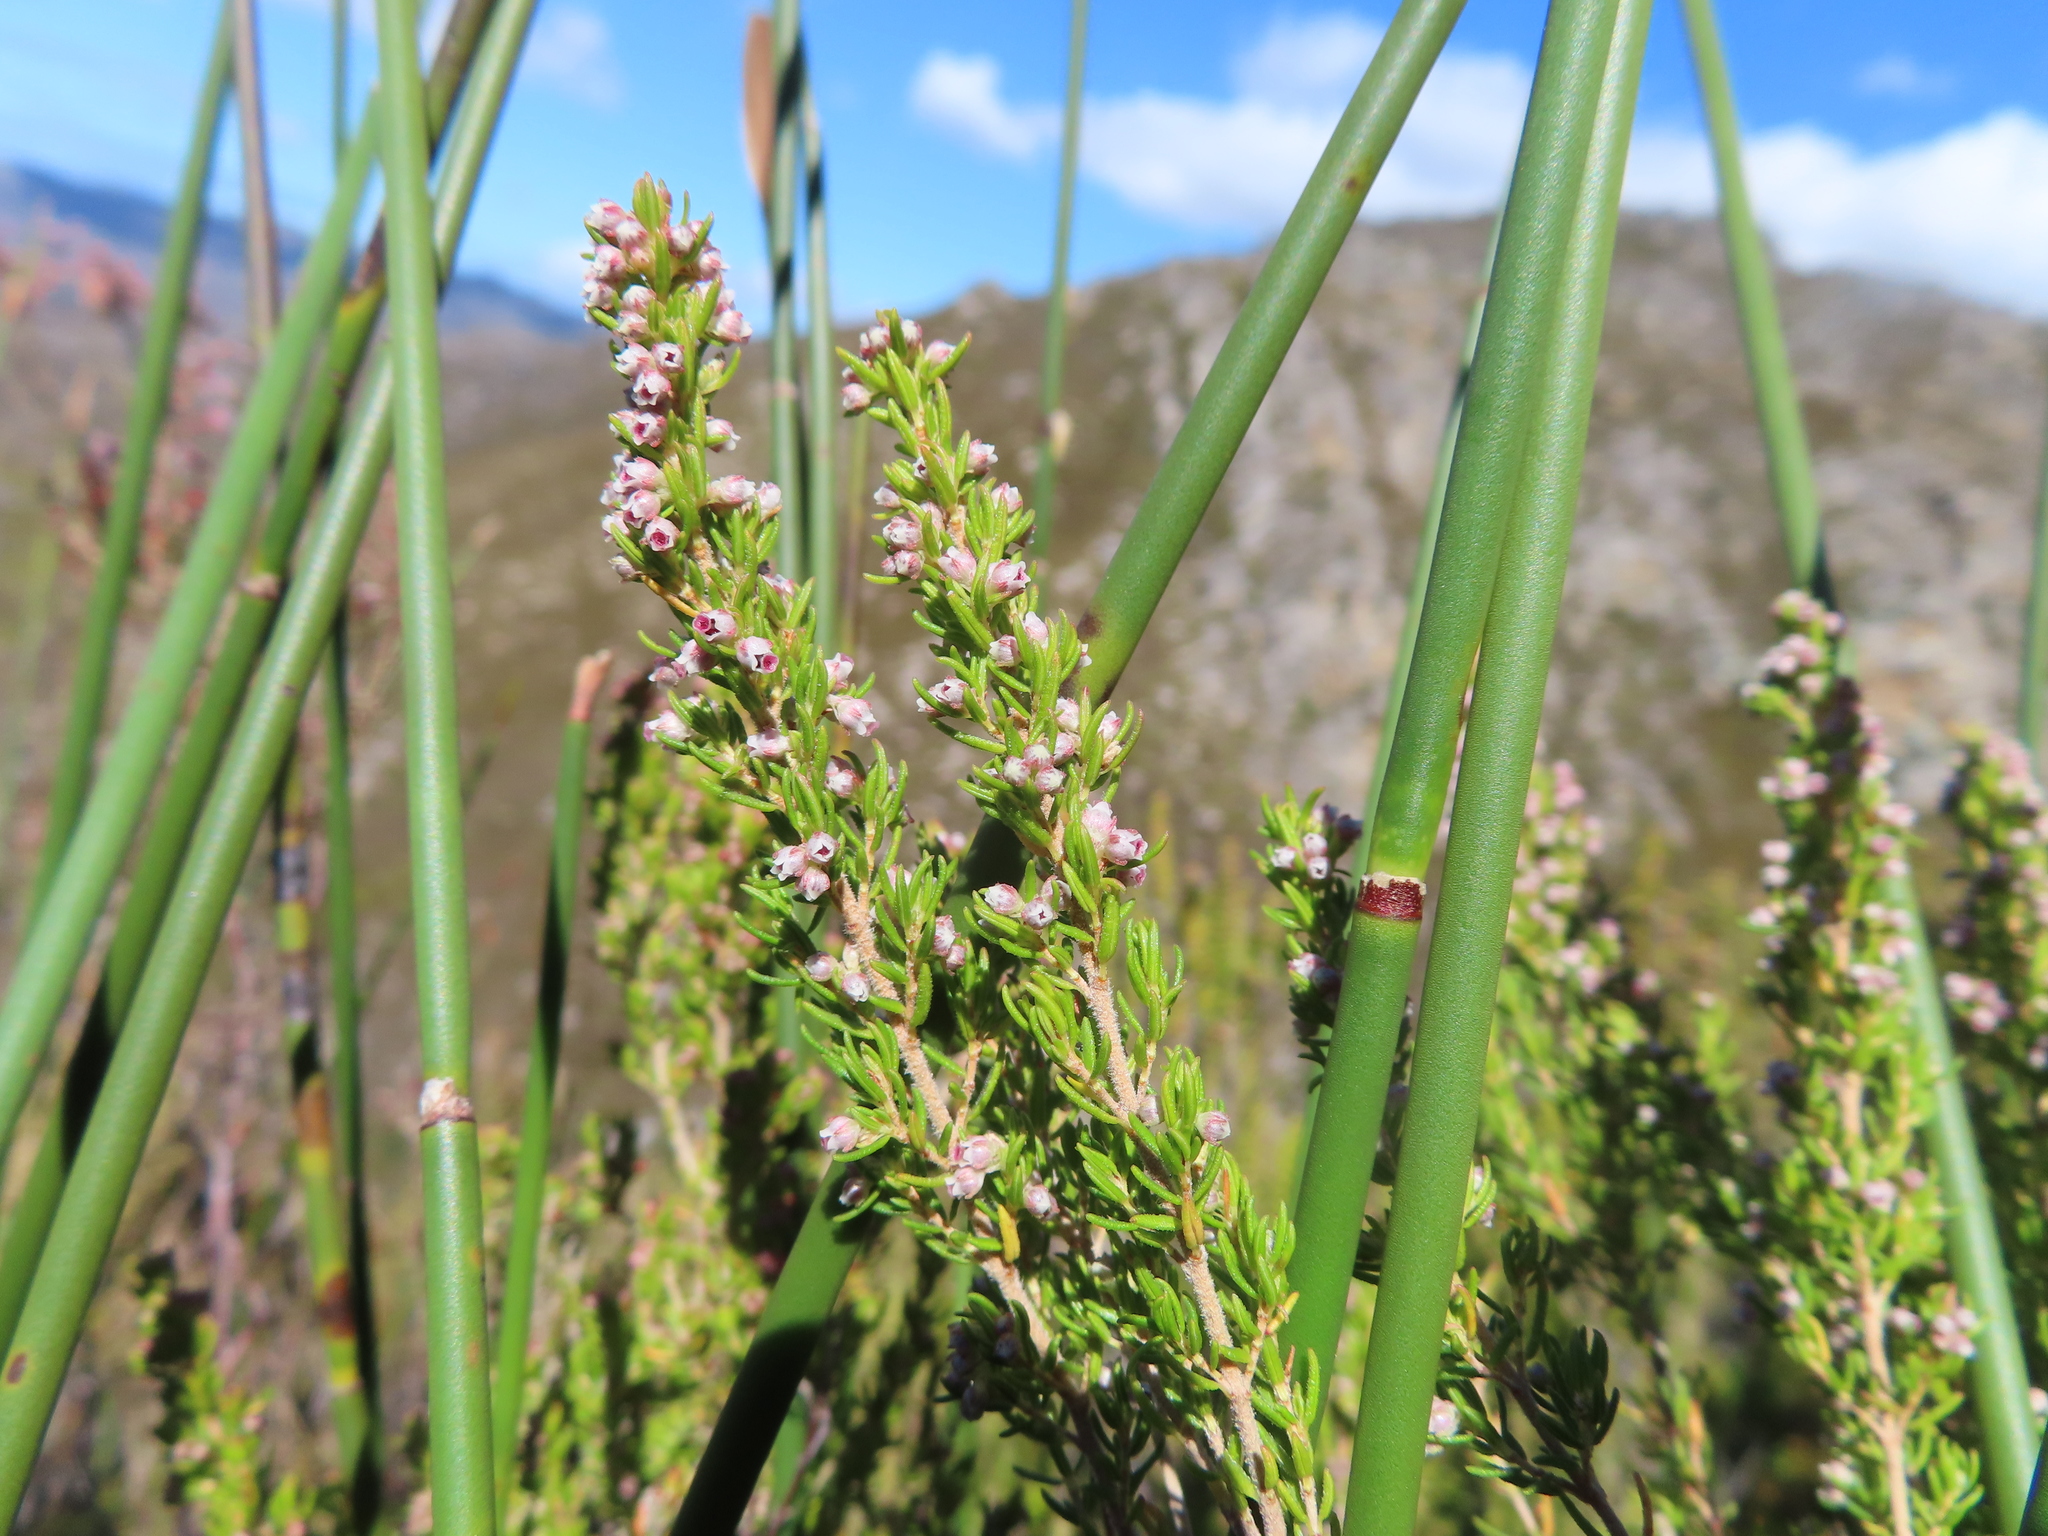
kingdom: Plantae
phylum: Tracheophyta
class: Magnoliopsida
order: Ericales
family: Ericaceae
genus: Erica
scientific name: Erica hispidula
